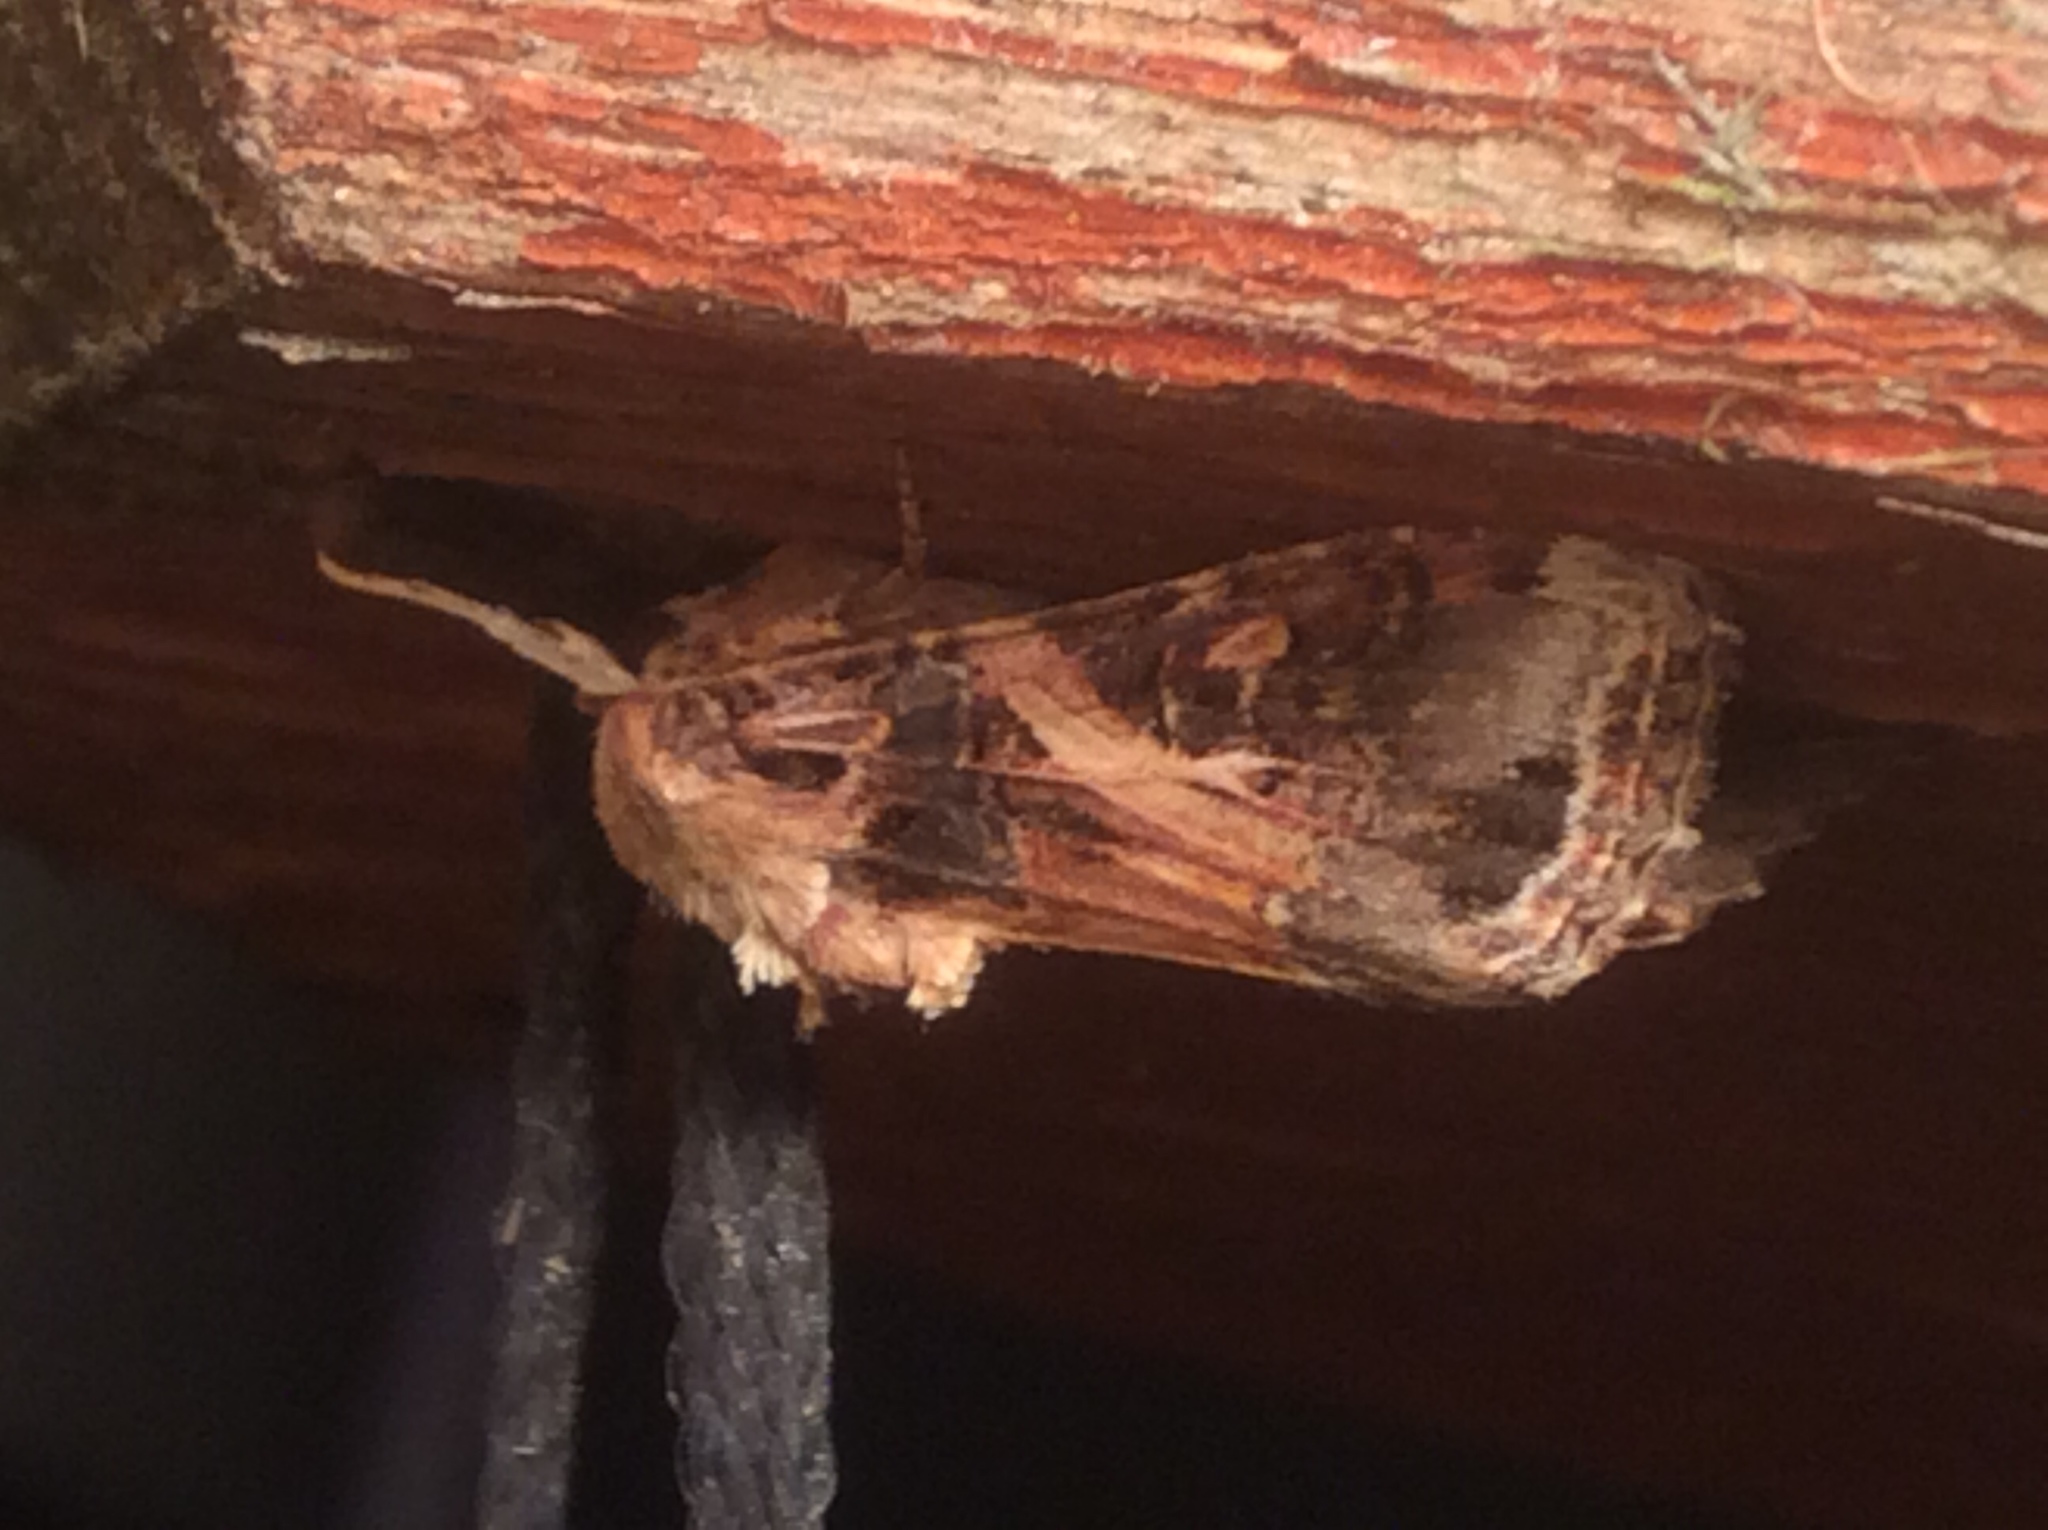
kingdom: Animalia
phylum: Arthropoda
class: Insecta
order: Lepidoptera
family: Noctuidae
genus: Spodoptera
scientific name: Spodoptera ornithogalli
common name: Yellow-striped armyworm
